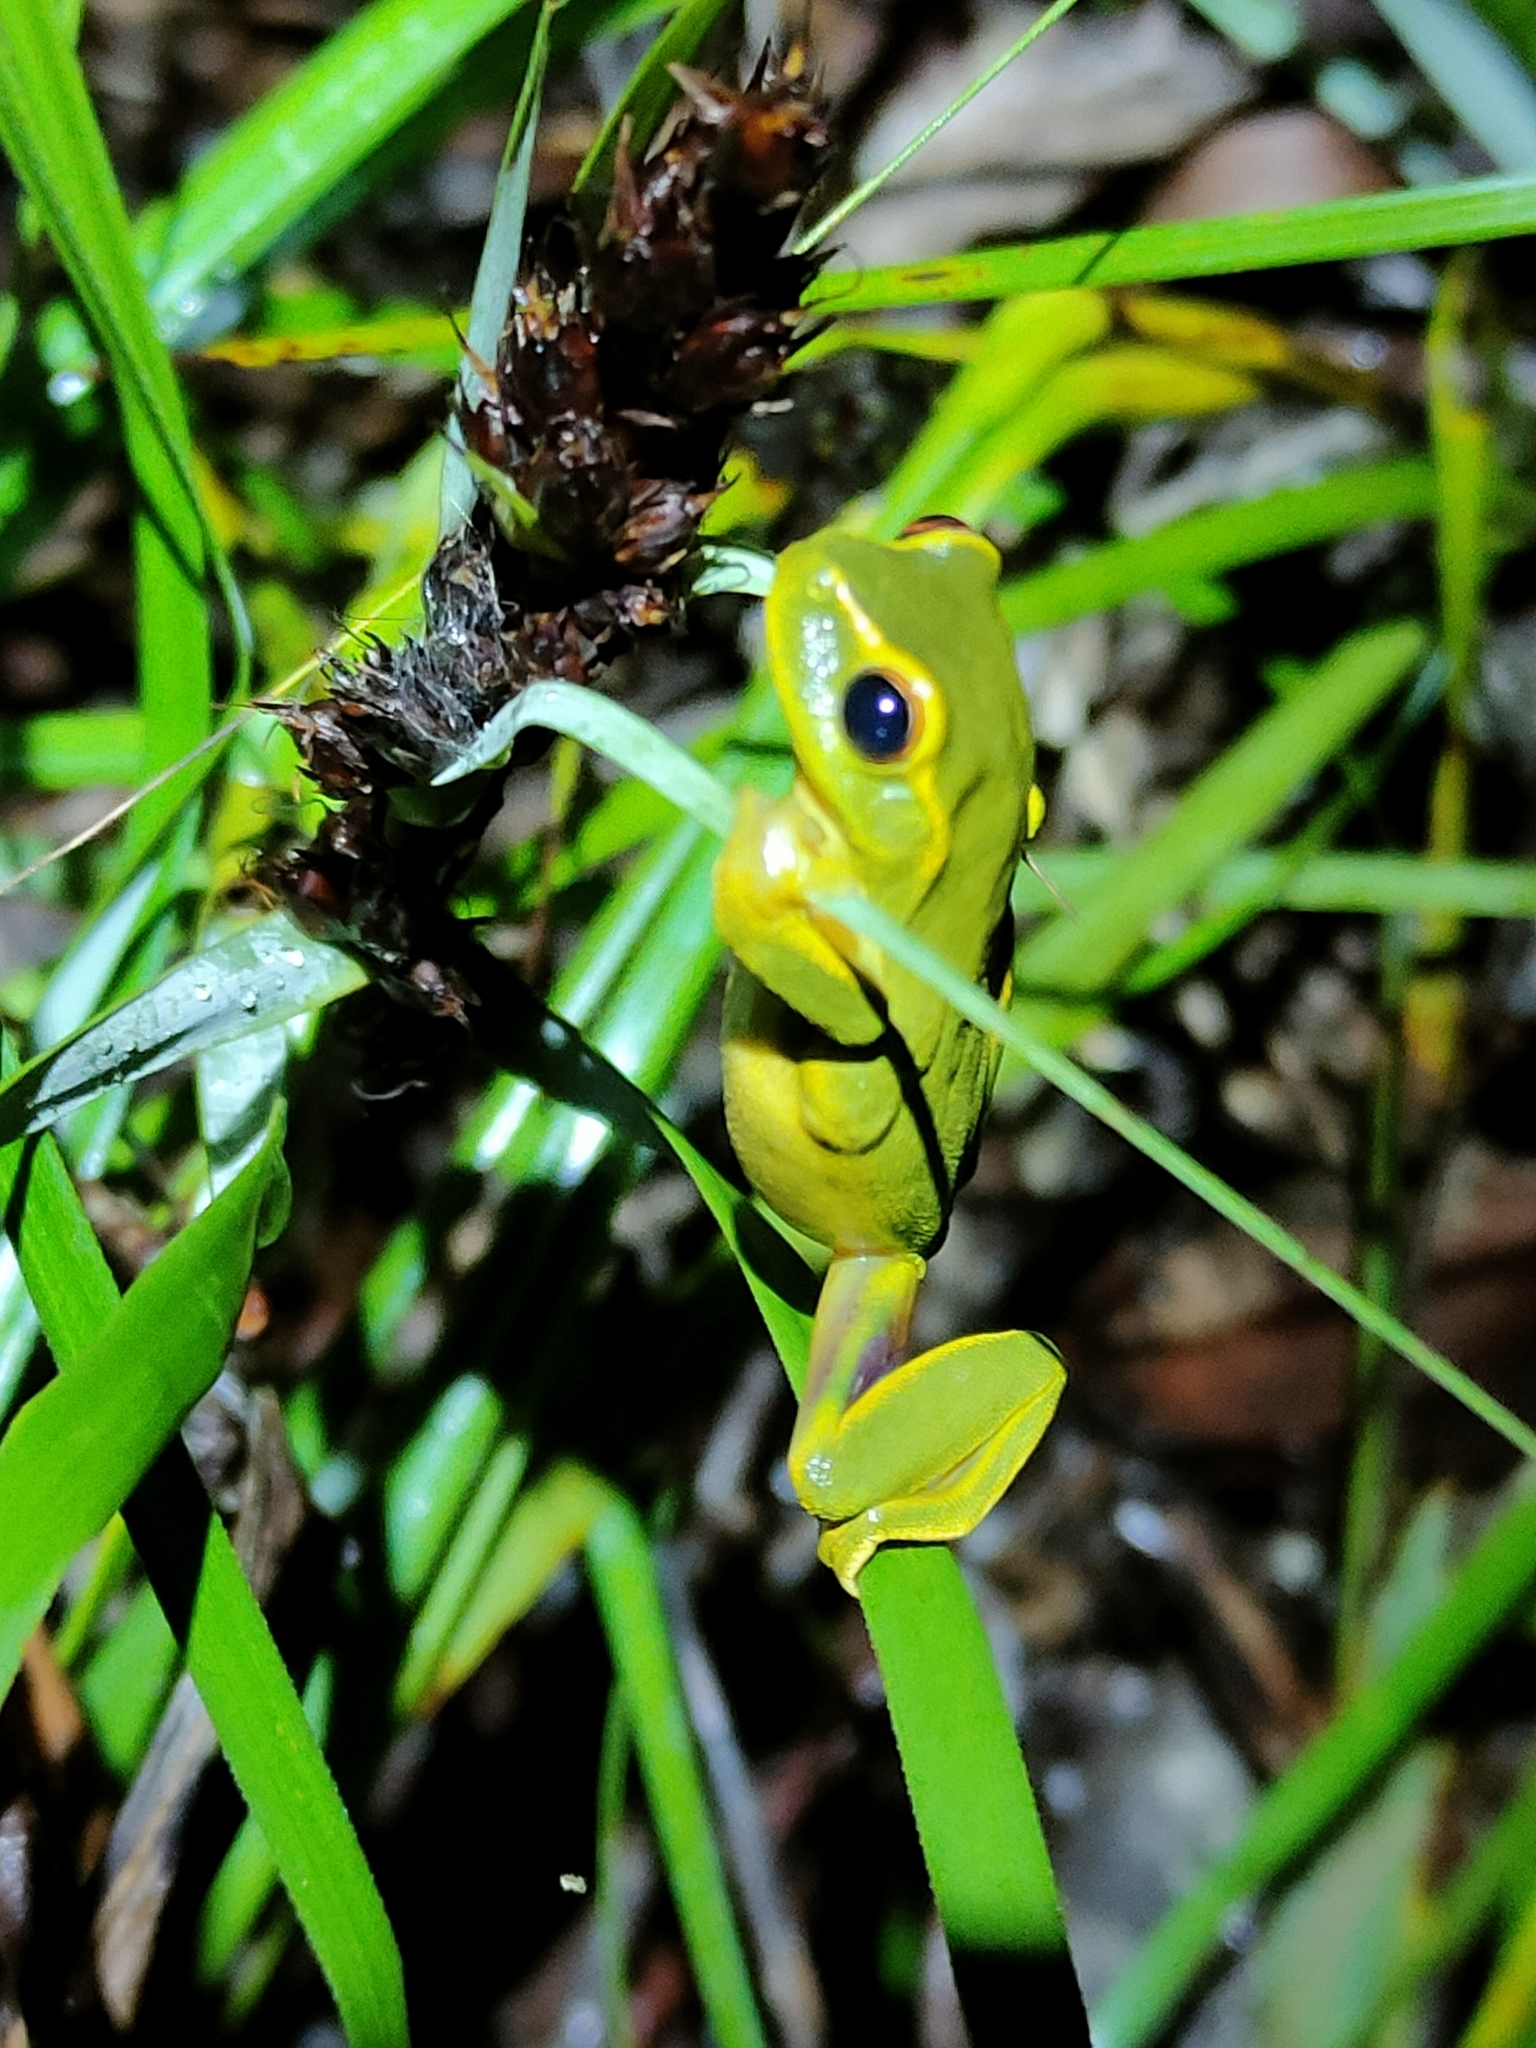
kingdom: Animalia
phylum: Chordata
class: Amphibia
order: Anura
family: Pelodryadidae
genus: Ranoidea
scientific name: Ranoidea gracilenta
